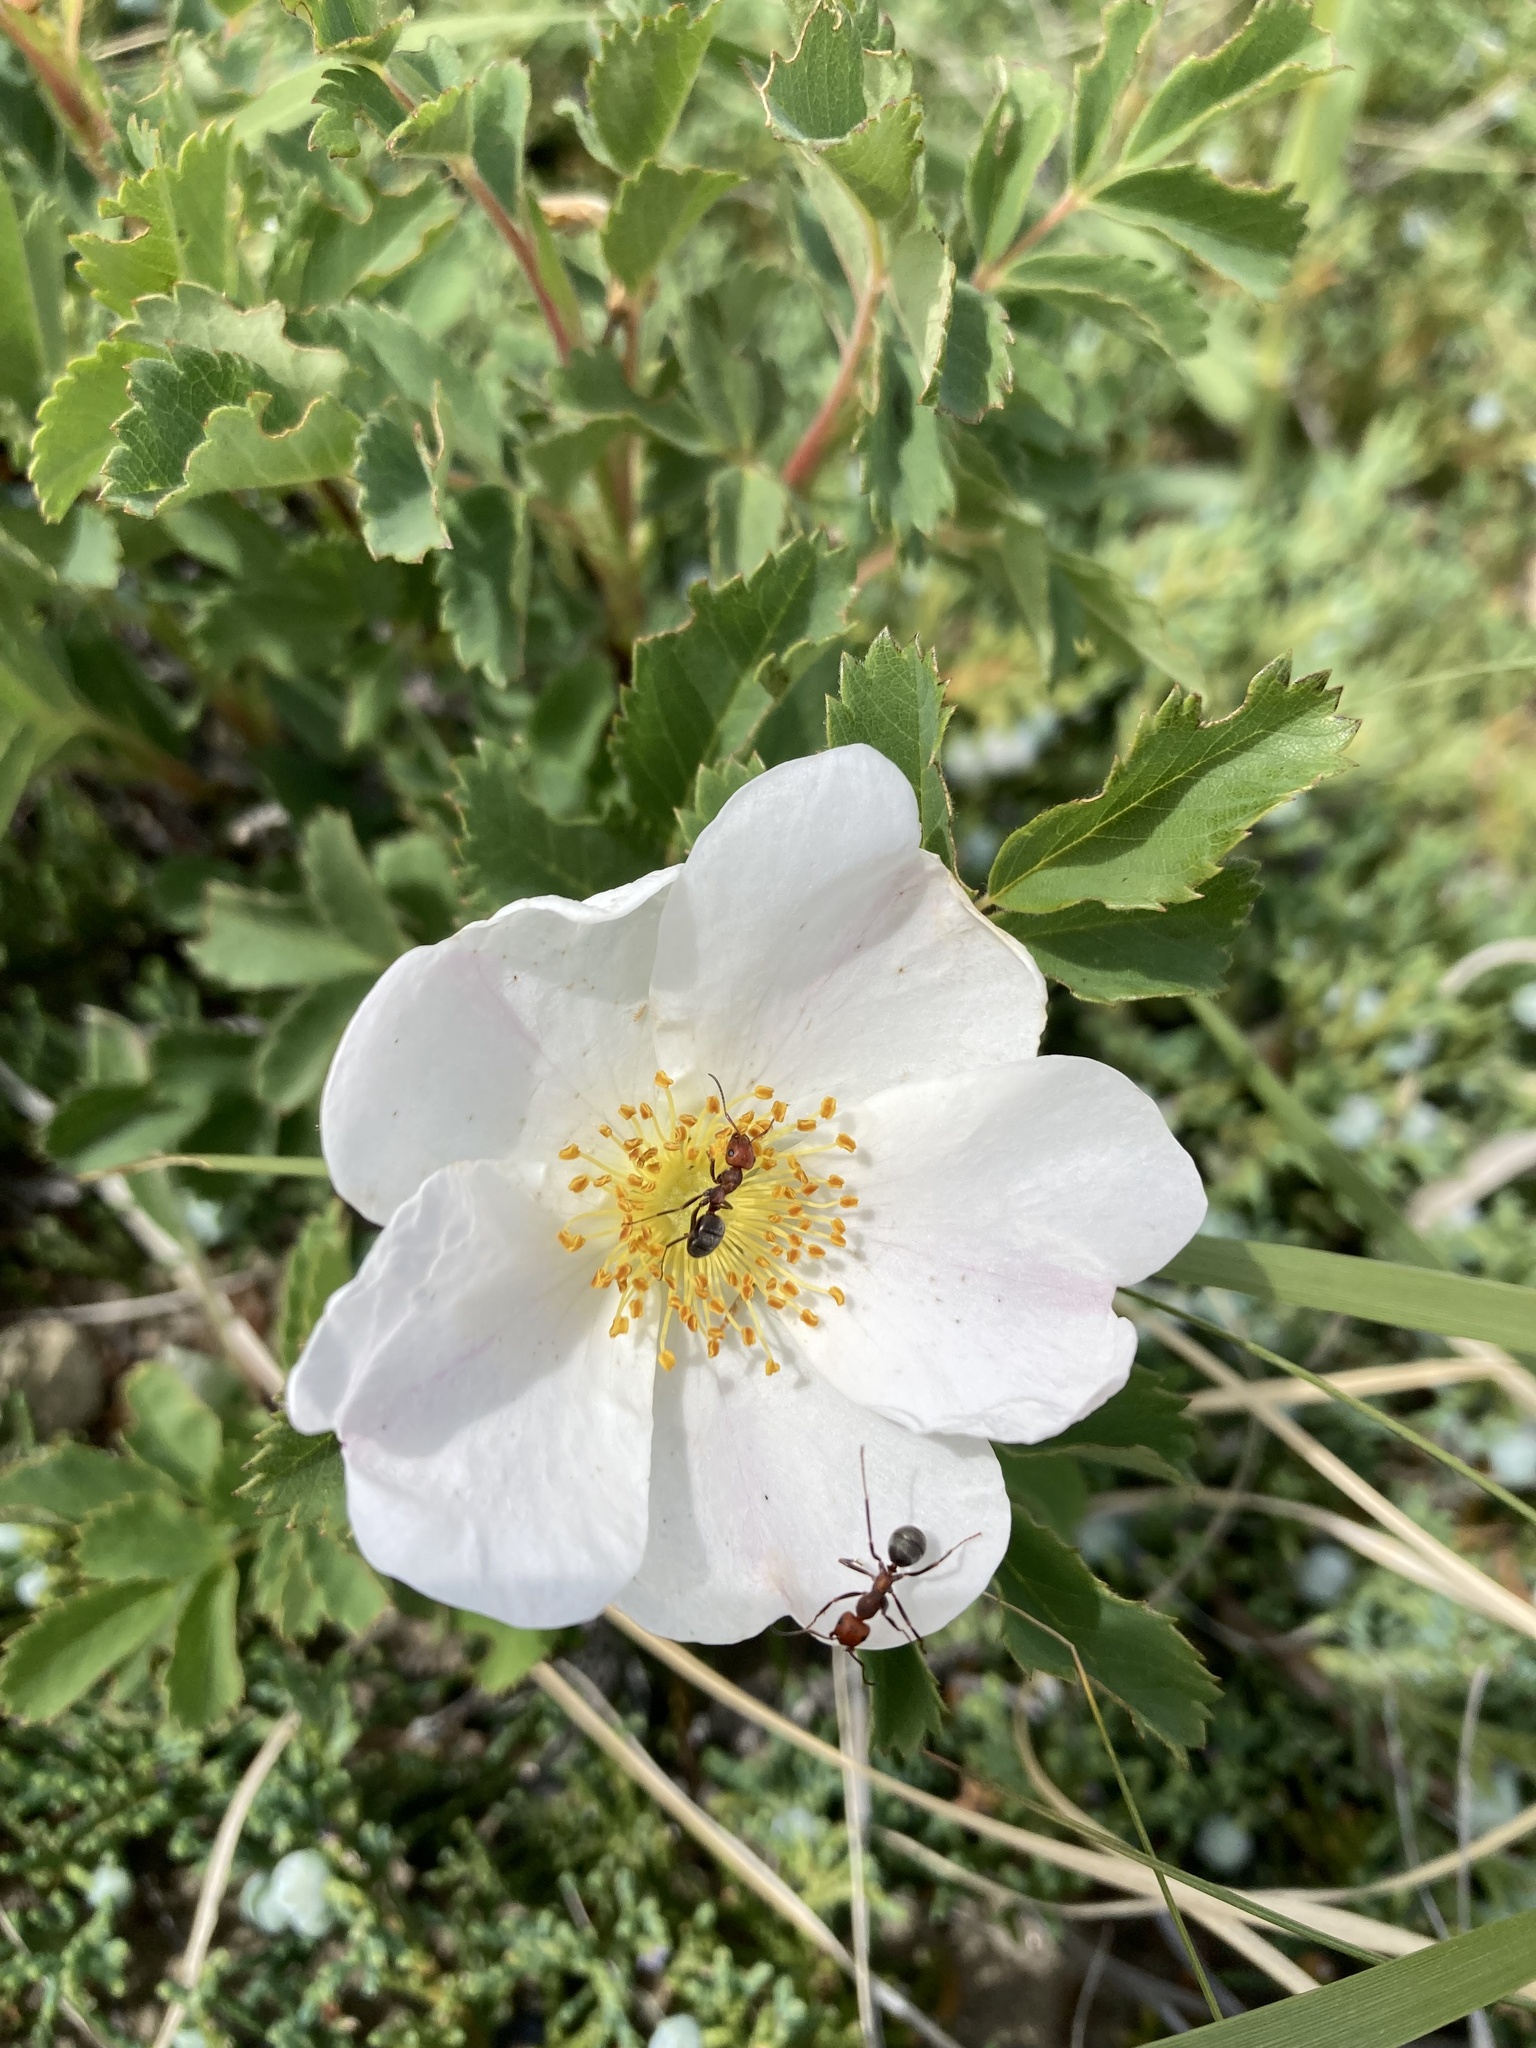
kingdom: Plantae
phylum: Tracheophyta
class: Magnoliopsida
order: Rosales
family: Rosaceae
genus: Rosa
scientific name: Rosa arkansana
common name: Prairie rose
